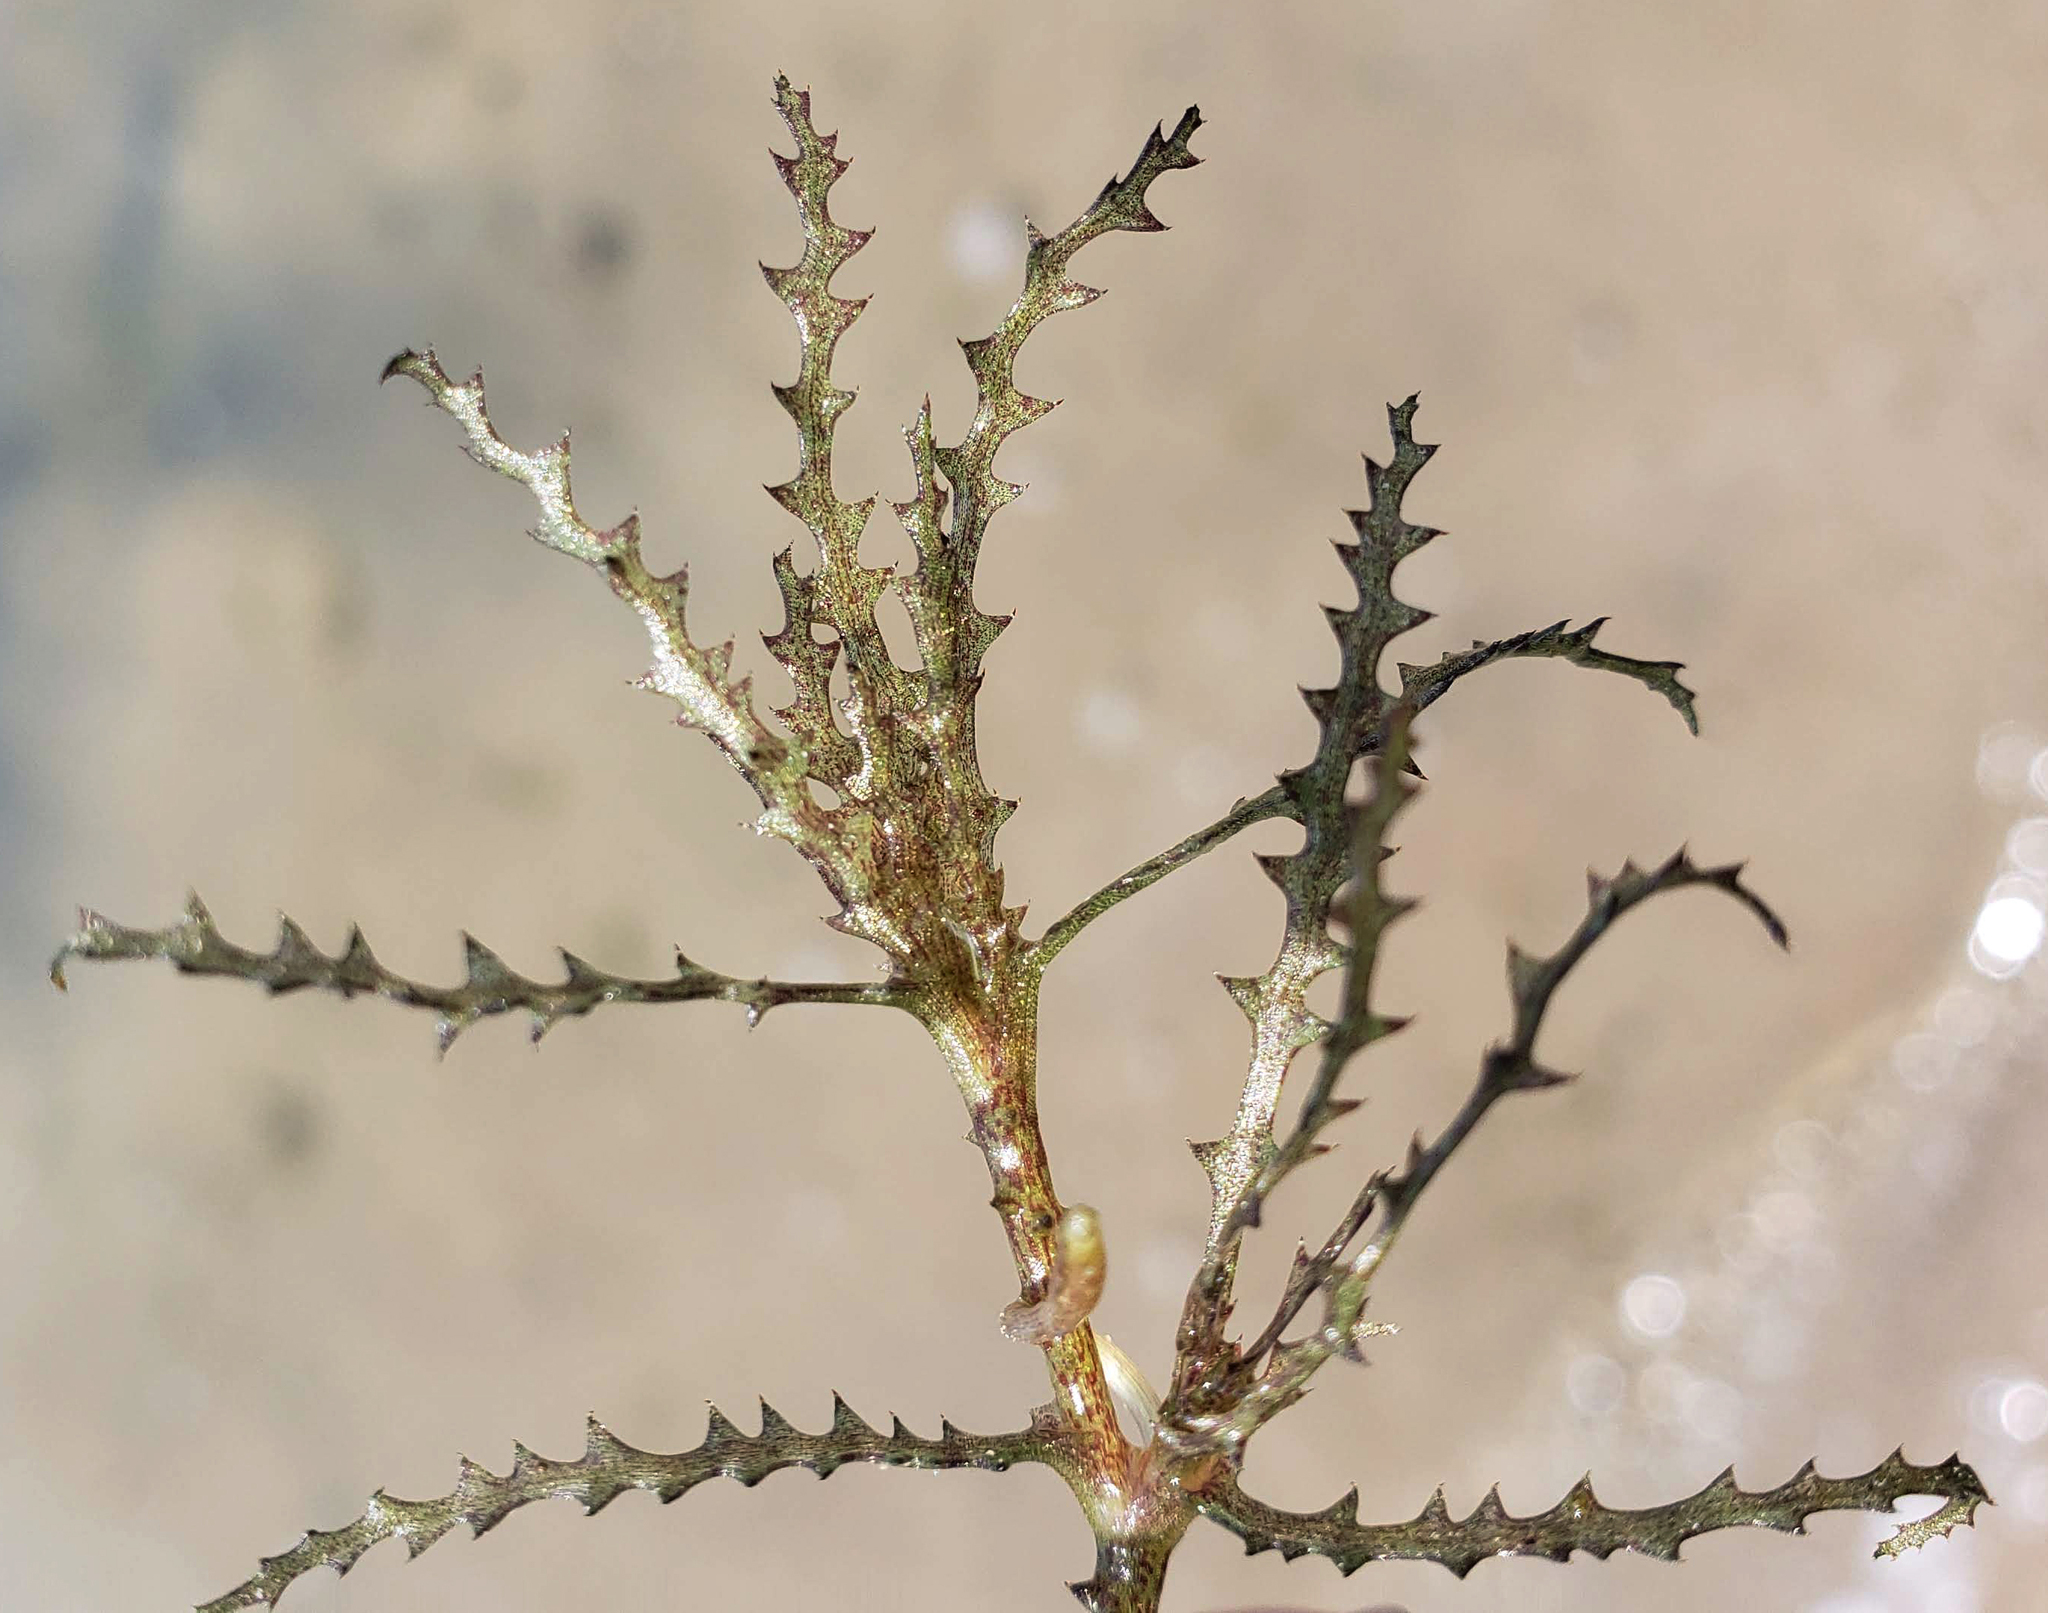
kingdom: Plantae
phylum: Tracheophyta
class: Liliopsida
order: Alismatales
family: Hydrocharitaceae
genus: Najas
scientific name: Najas marina
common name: Holly-leaved naiad
